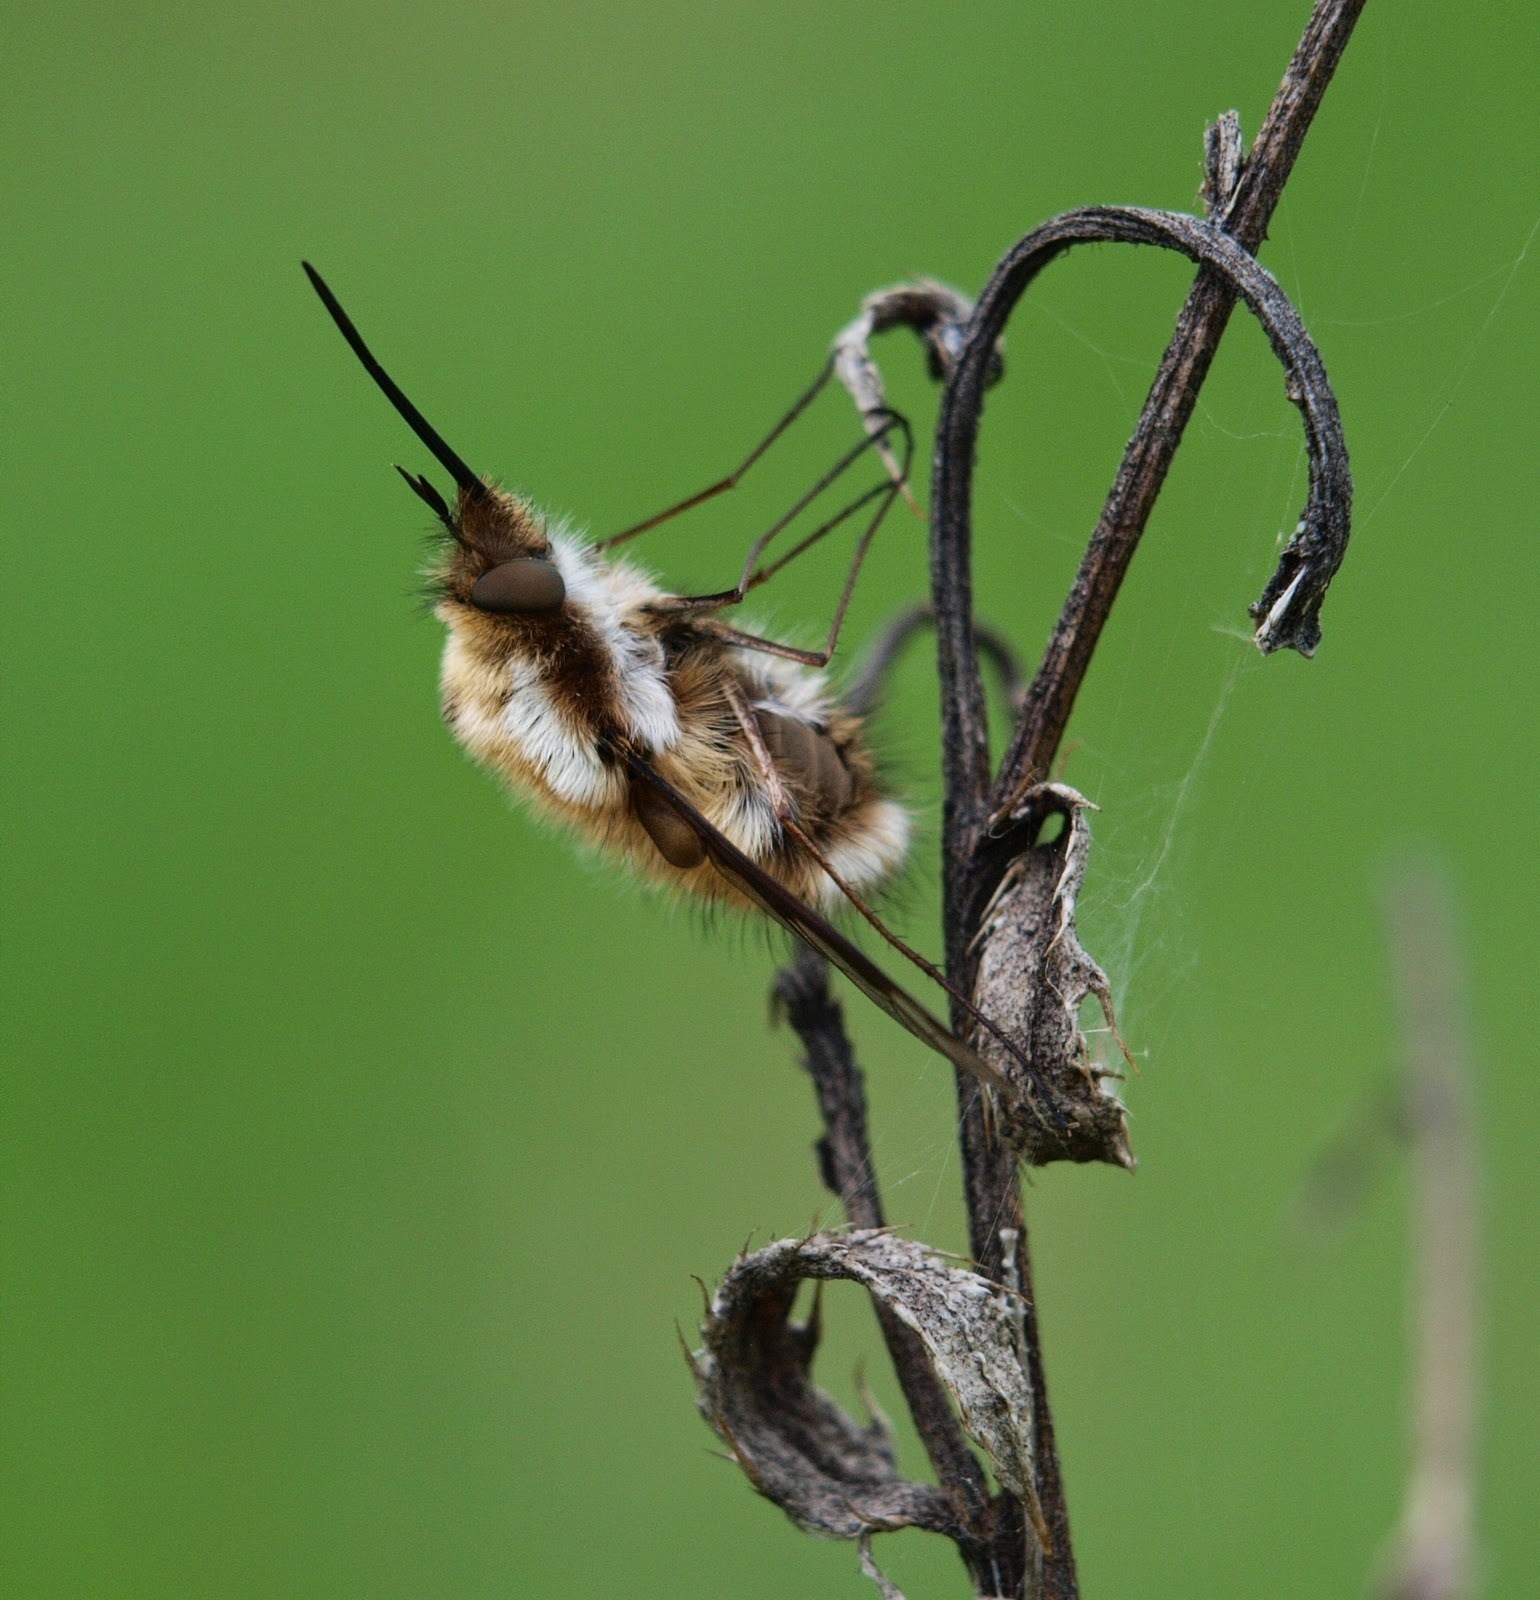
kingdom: Animalia
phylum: Arthropoda
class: Insecta
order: Diptera
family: Bombyliidae
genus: Bombylius
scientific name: Bombylius major
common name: Bee fly
